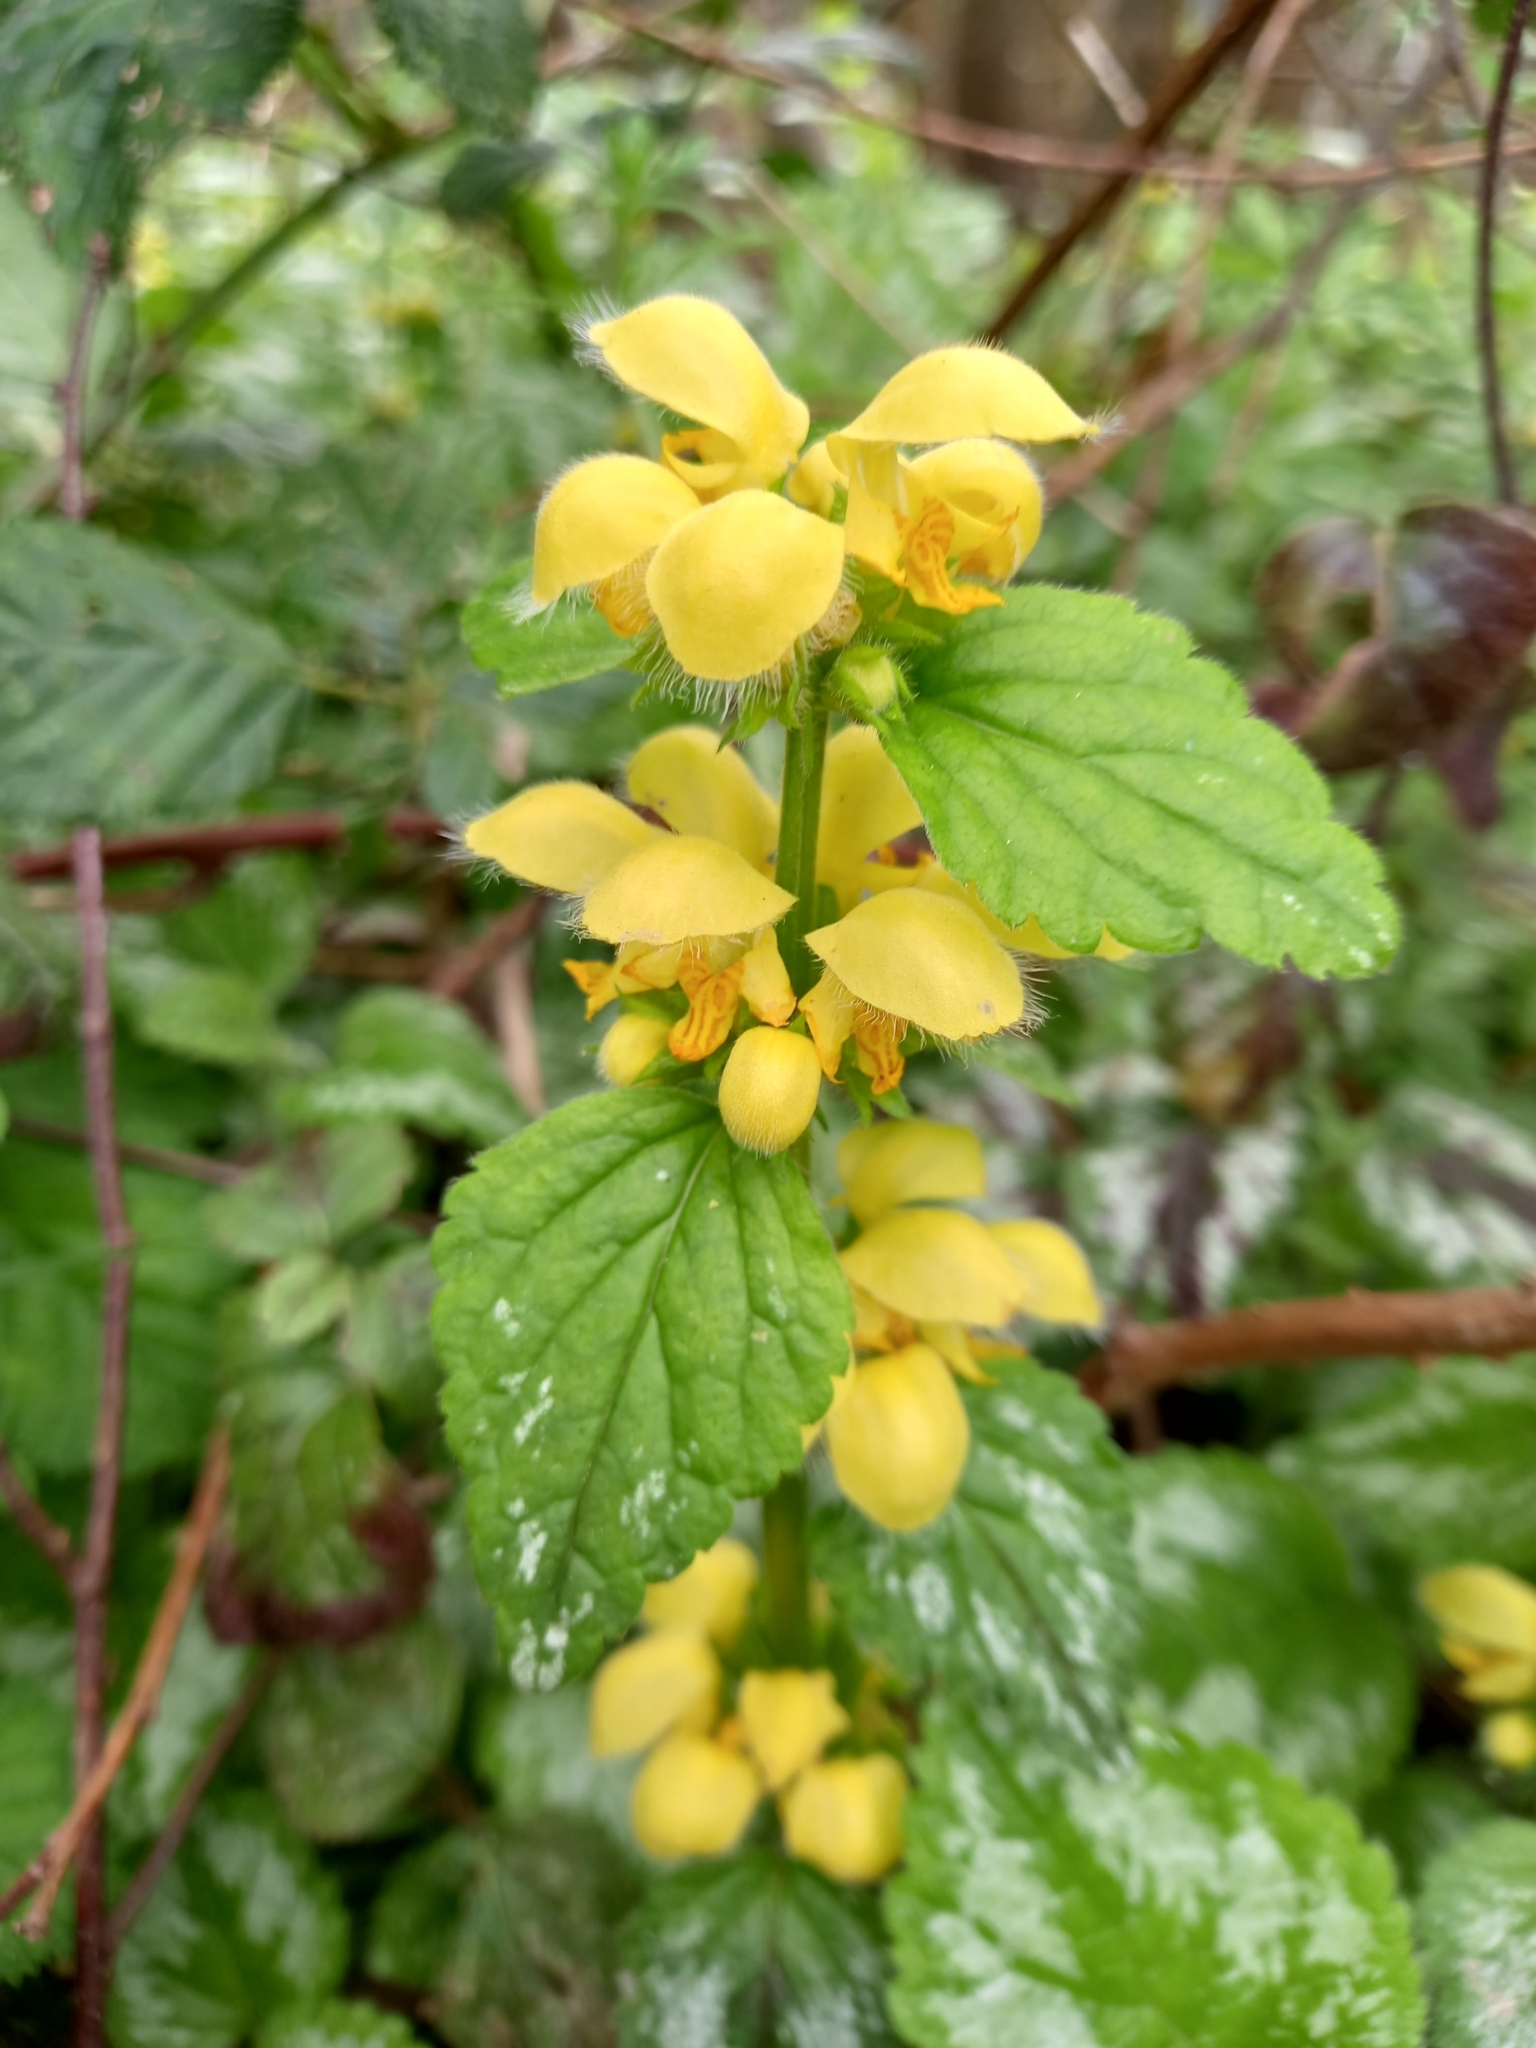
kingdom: Plantae
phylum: Tracheophyta
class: Magnoliopsida
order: Lamiales
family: Lamiaceae
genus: Lamium
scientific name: Lamium galeobdolon
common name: Yellow archangel
